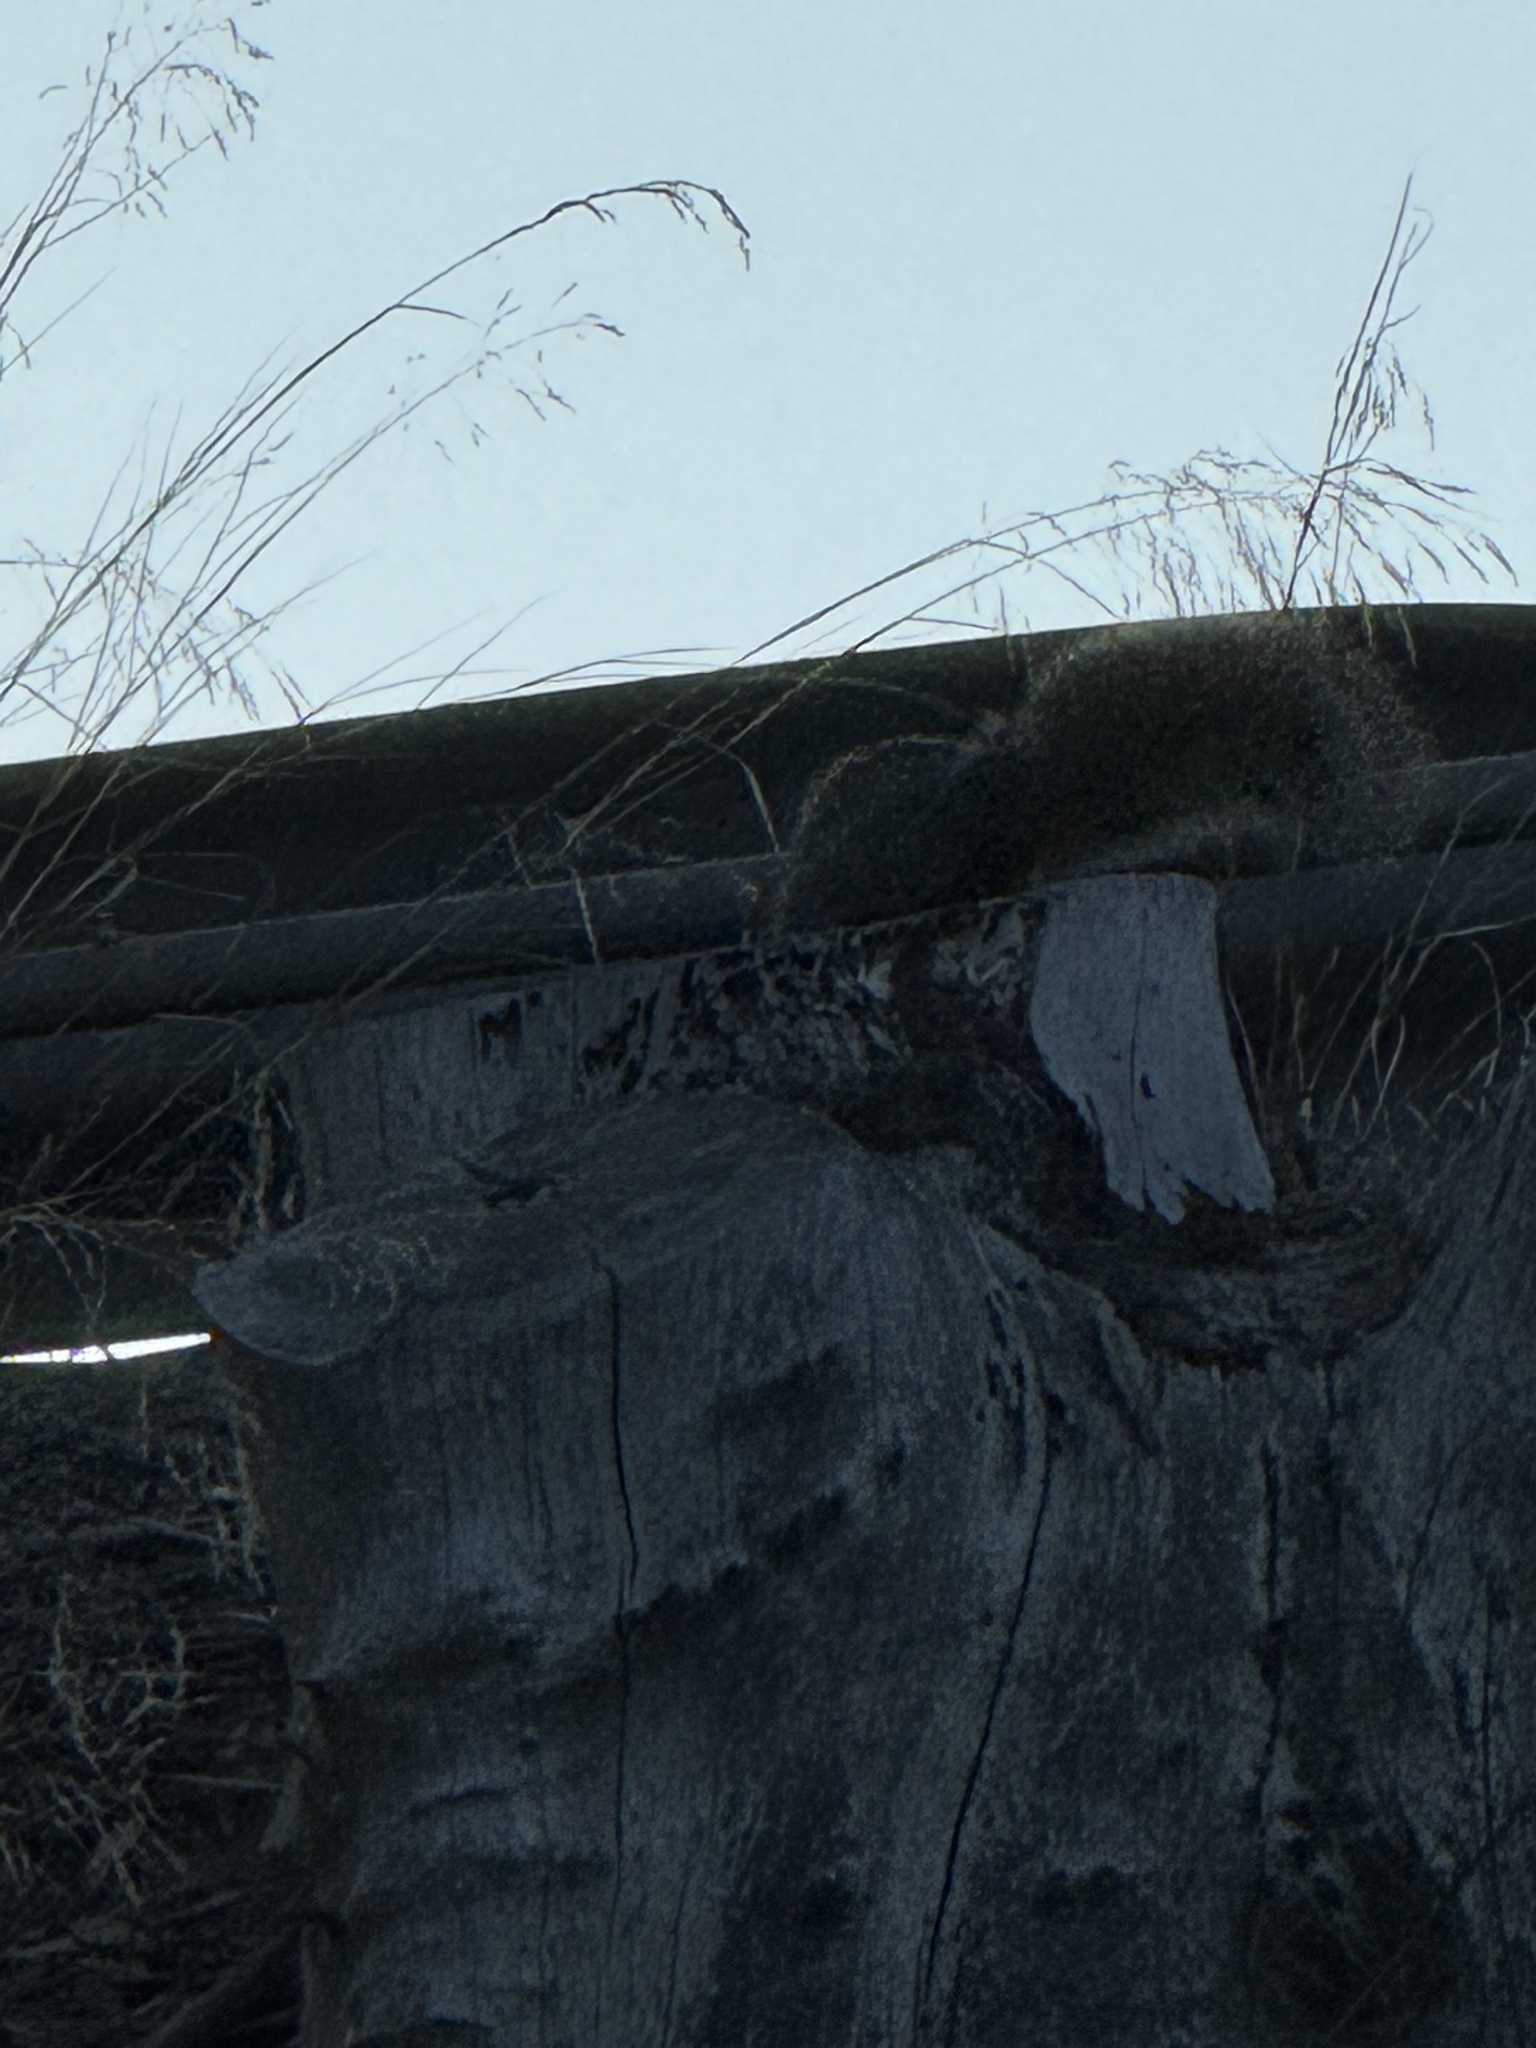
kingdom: Animalia
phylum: Chordata
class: Mammalia
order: Rodentia
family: Sciuridae
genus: Sciurus
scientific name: Sciurus niger
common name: Fox squirrel
